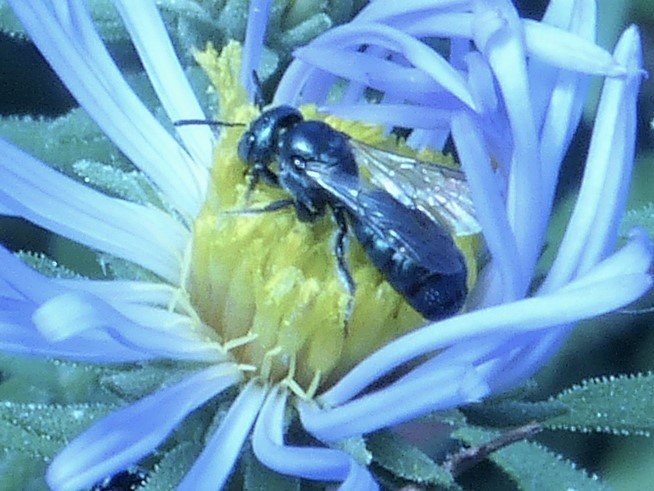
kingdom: Animalia
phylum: Arthropoda
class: Insecta
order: Hymenoptera
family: Apidae
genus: Zadontomerus
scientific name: Zadontomerus
